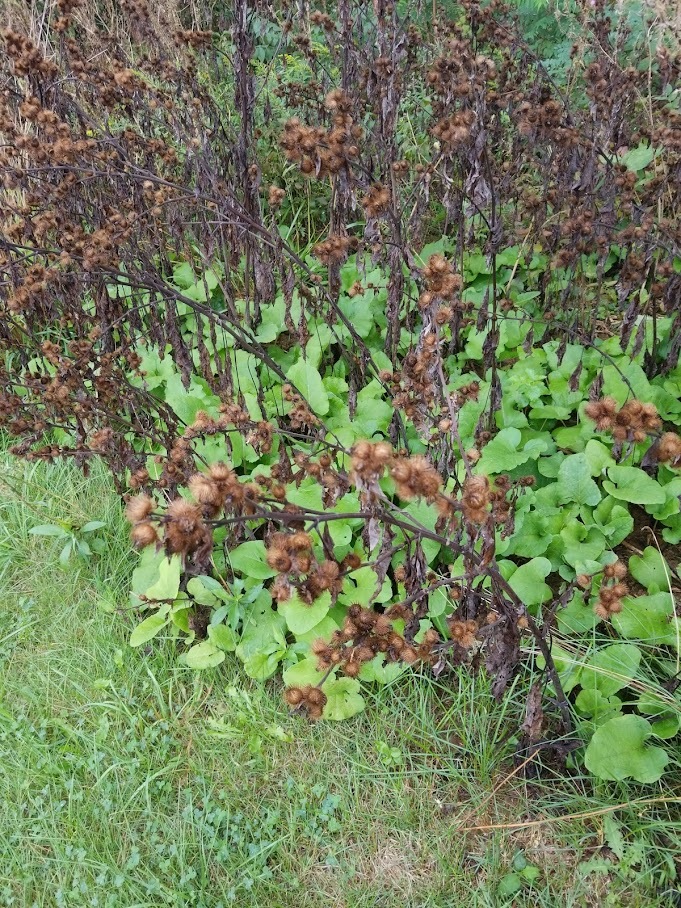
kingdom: Plantae
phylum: Tracheophyta
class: Magnoliopsida
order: Asterales
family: Asteraceae
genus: Arctium
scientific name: Arctium minus
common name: Lesser burdock
